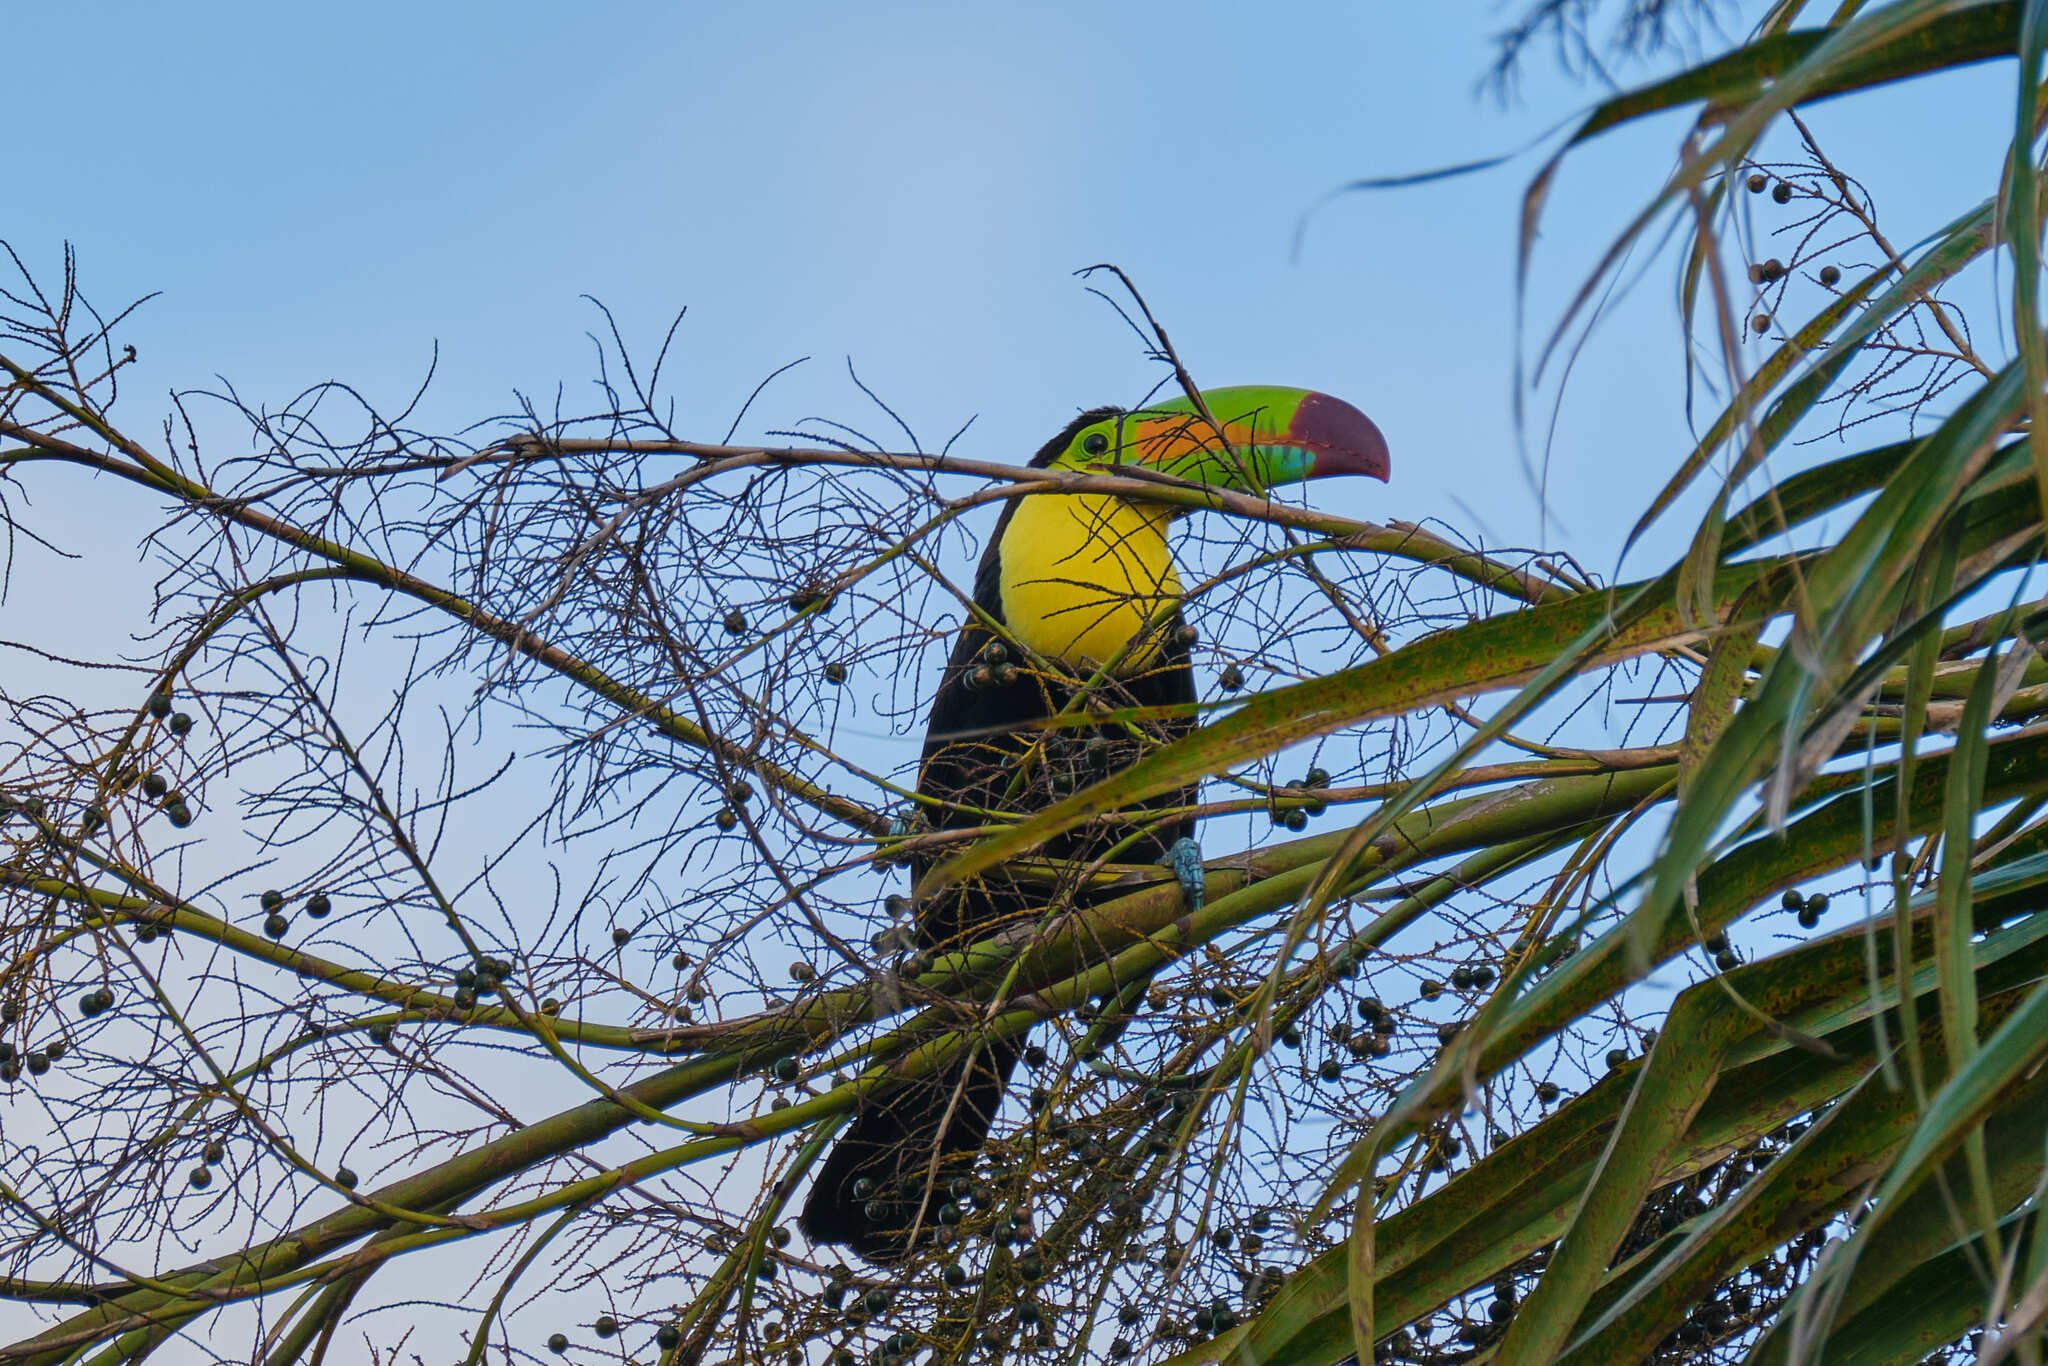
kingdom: Animalia
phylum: Chordata
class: Aves
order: Piciformes
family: Ramphastidae
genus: Ramphastos
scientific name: Ramphastos sulfuratus
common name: Keel-billed toucan
